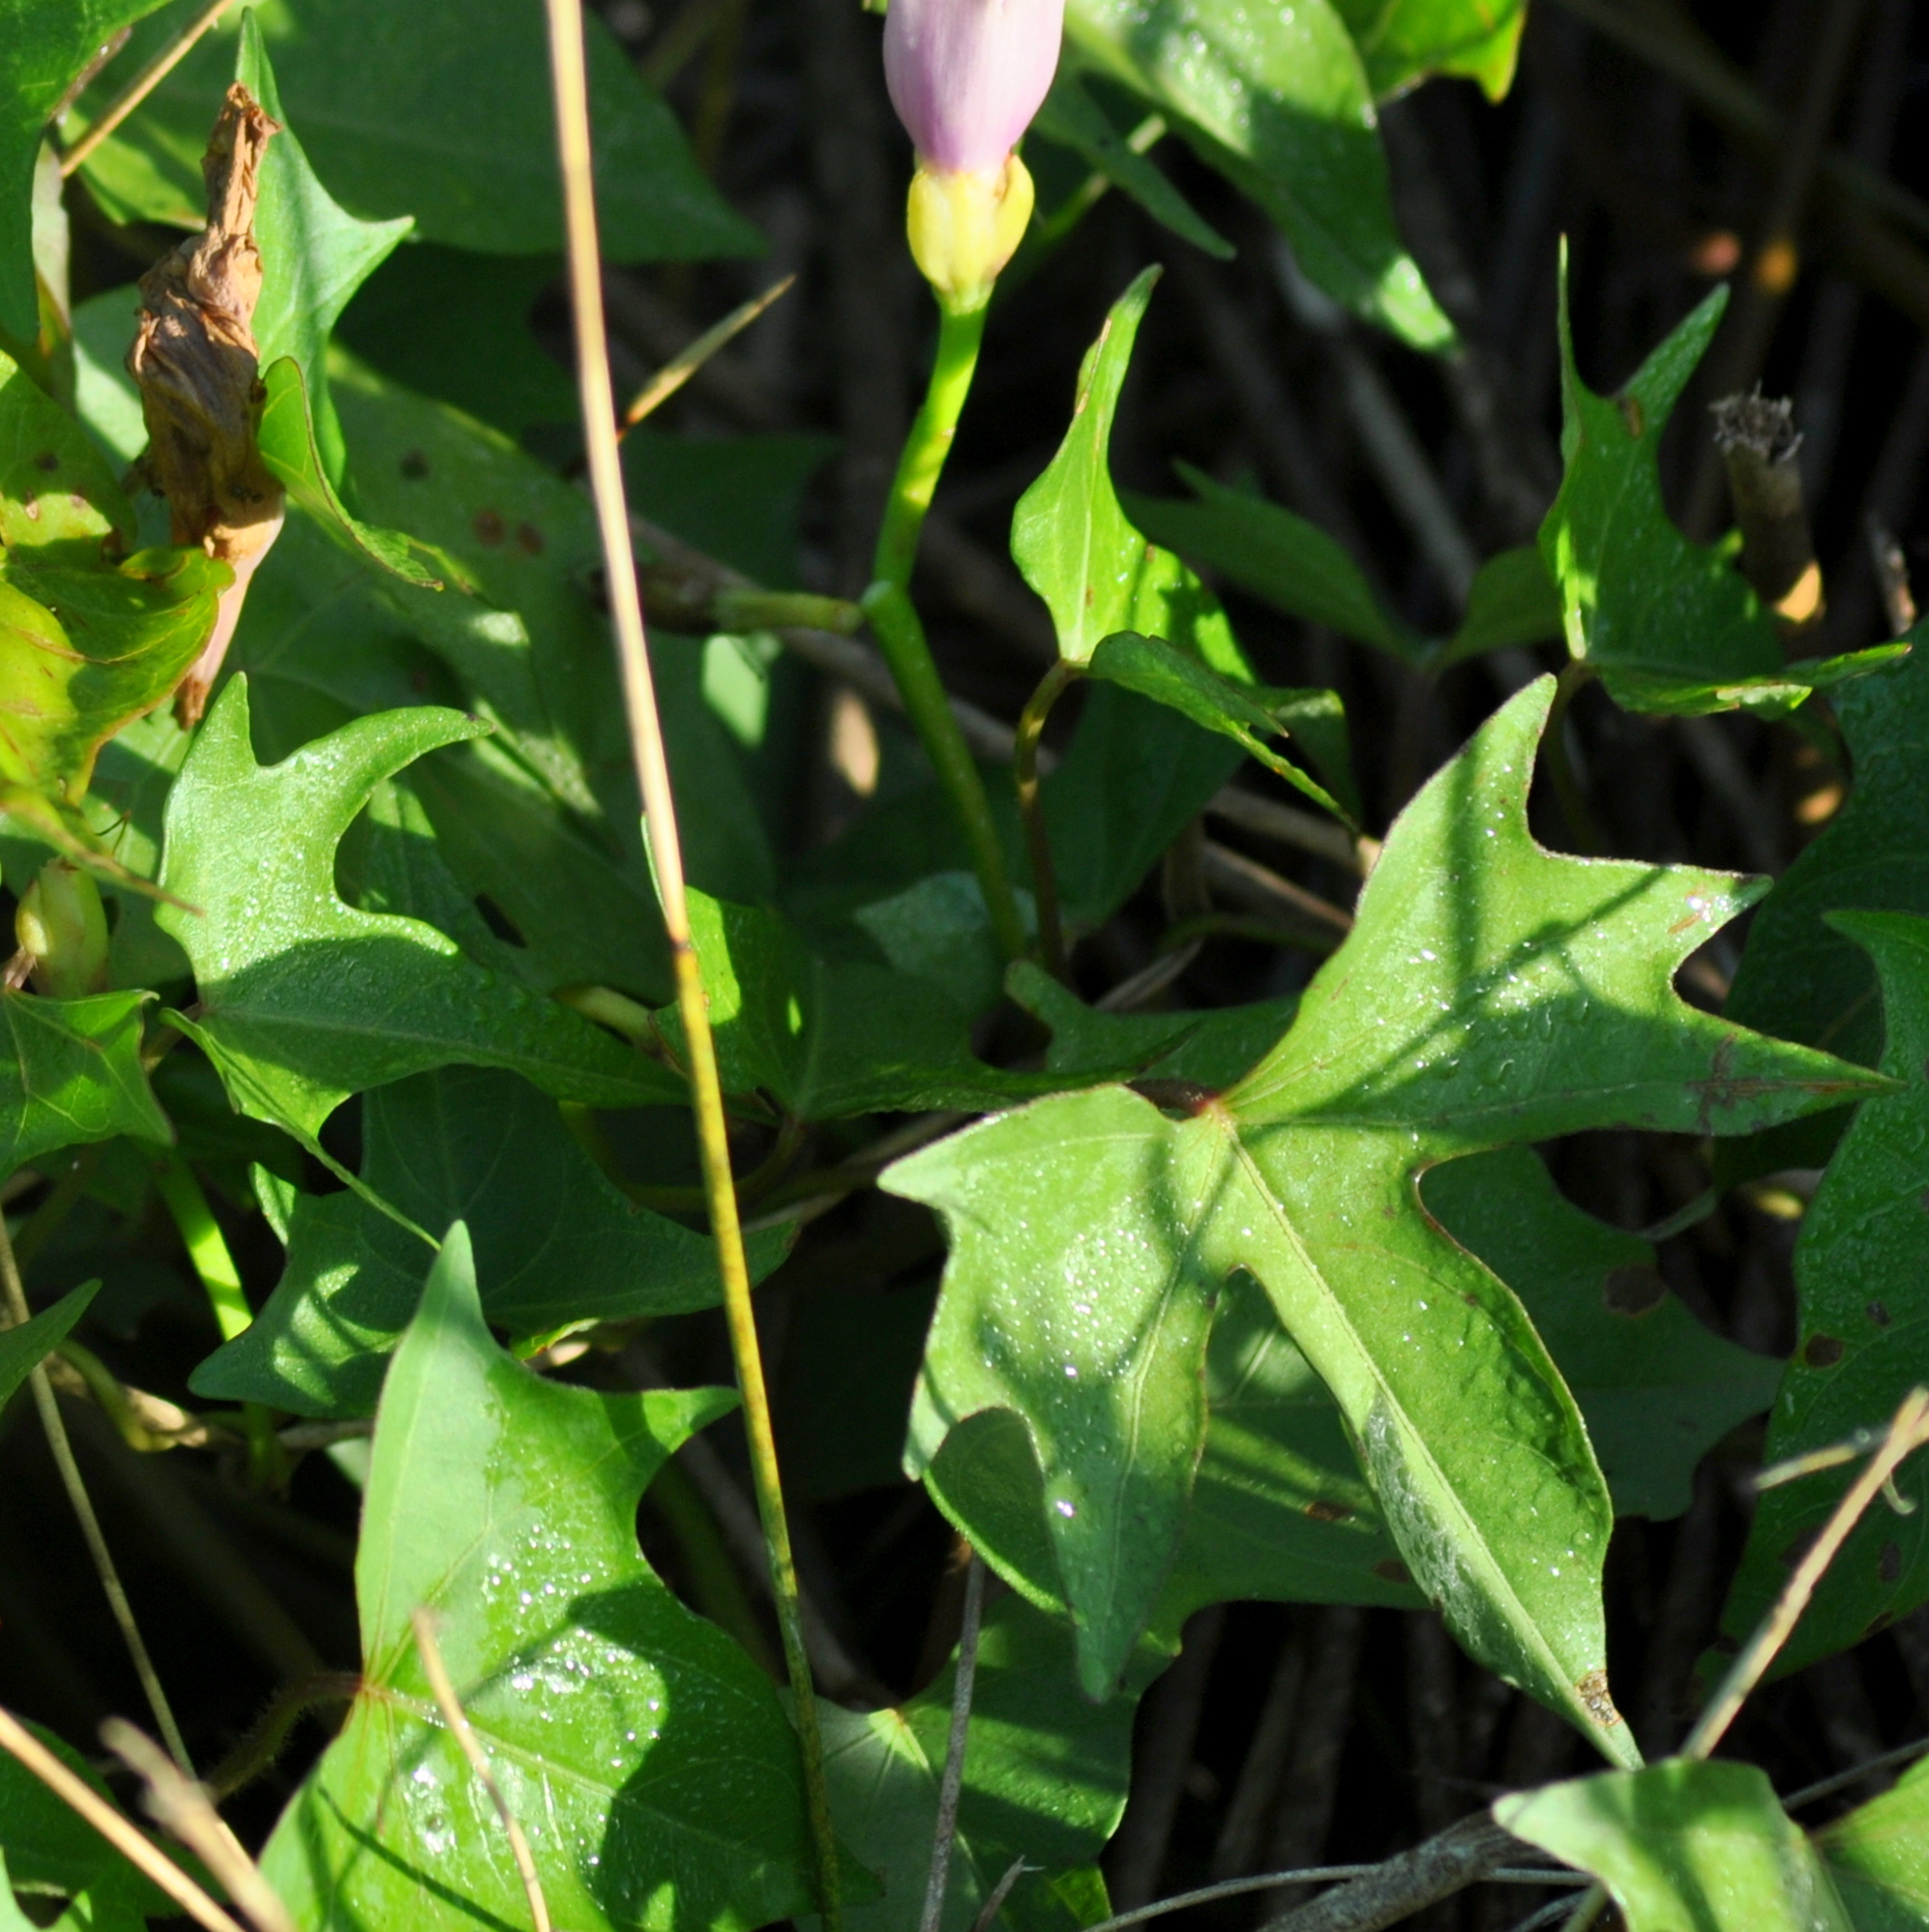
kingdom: Plantae
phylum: Tracheophyta
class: Magnoliopsida
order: Solanales
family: Convolvulaceae
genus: Ipomoea
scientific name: Ipomoea tiliacea
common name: Wild potato vine
